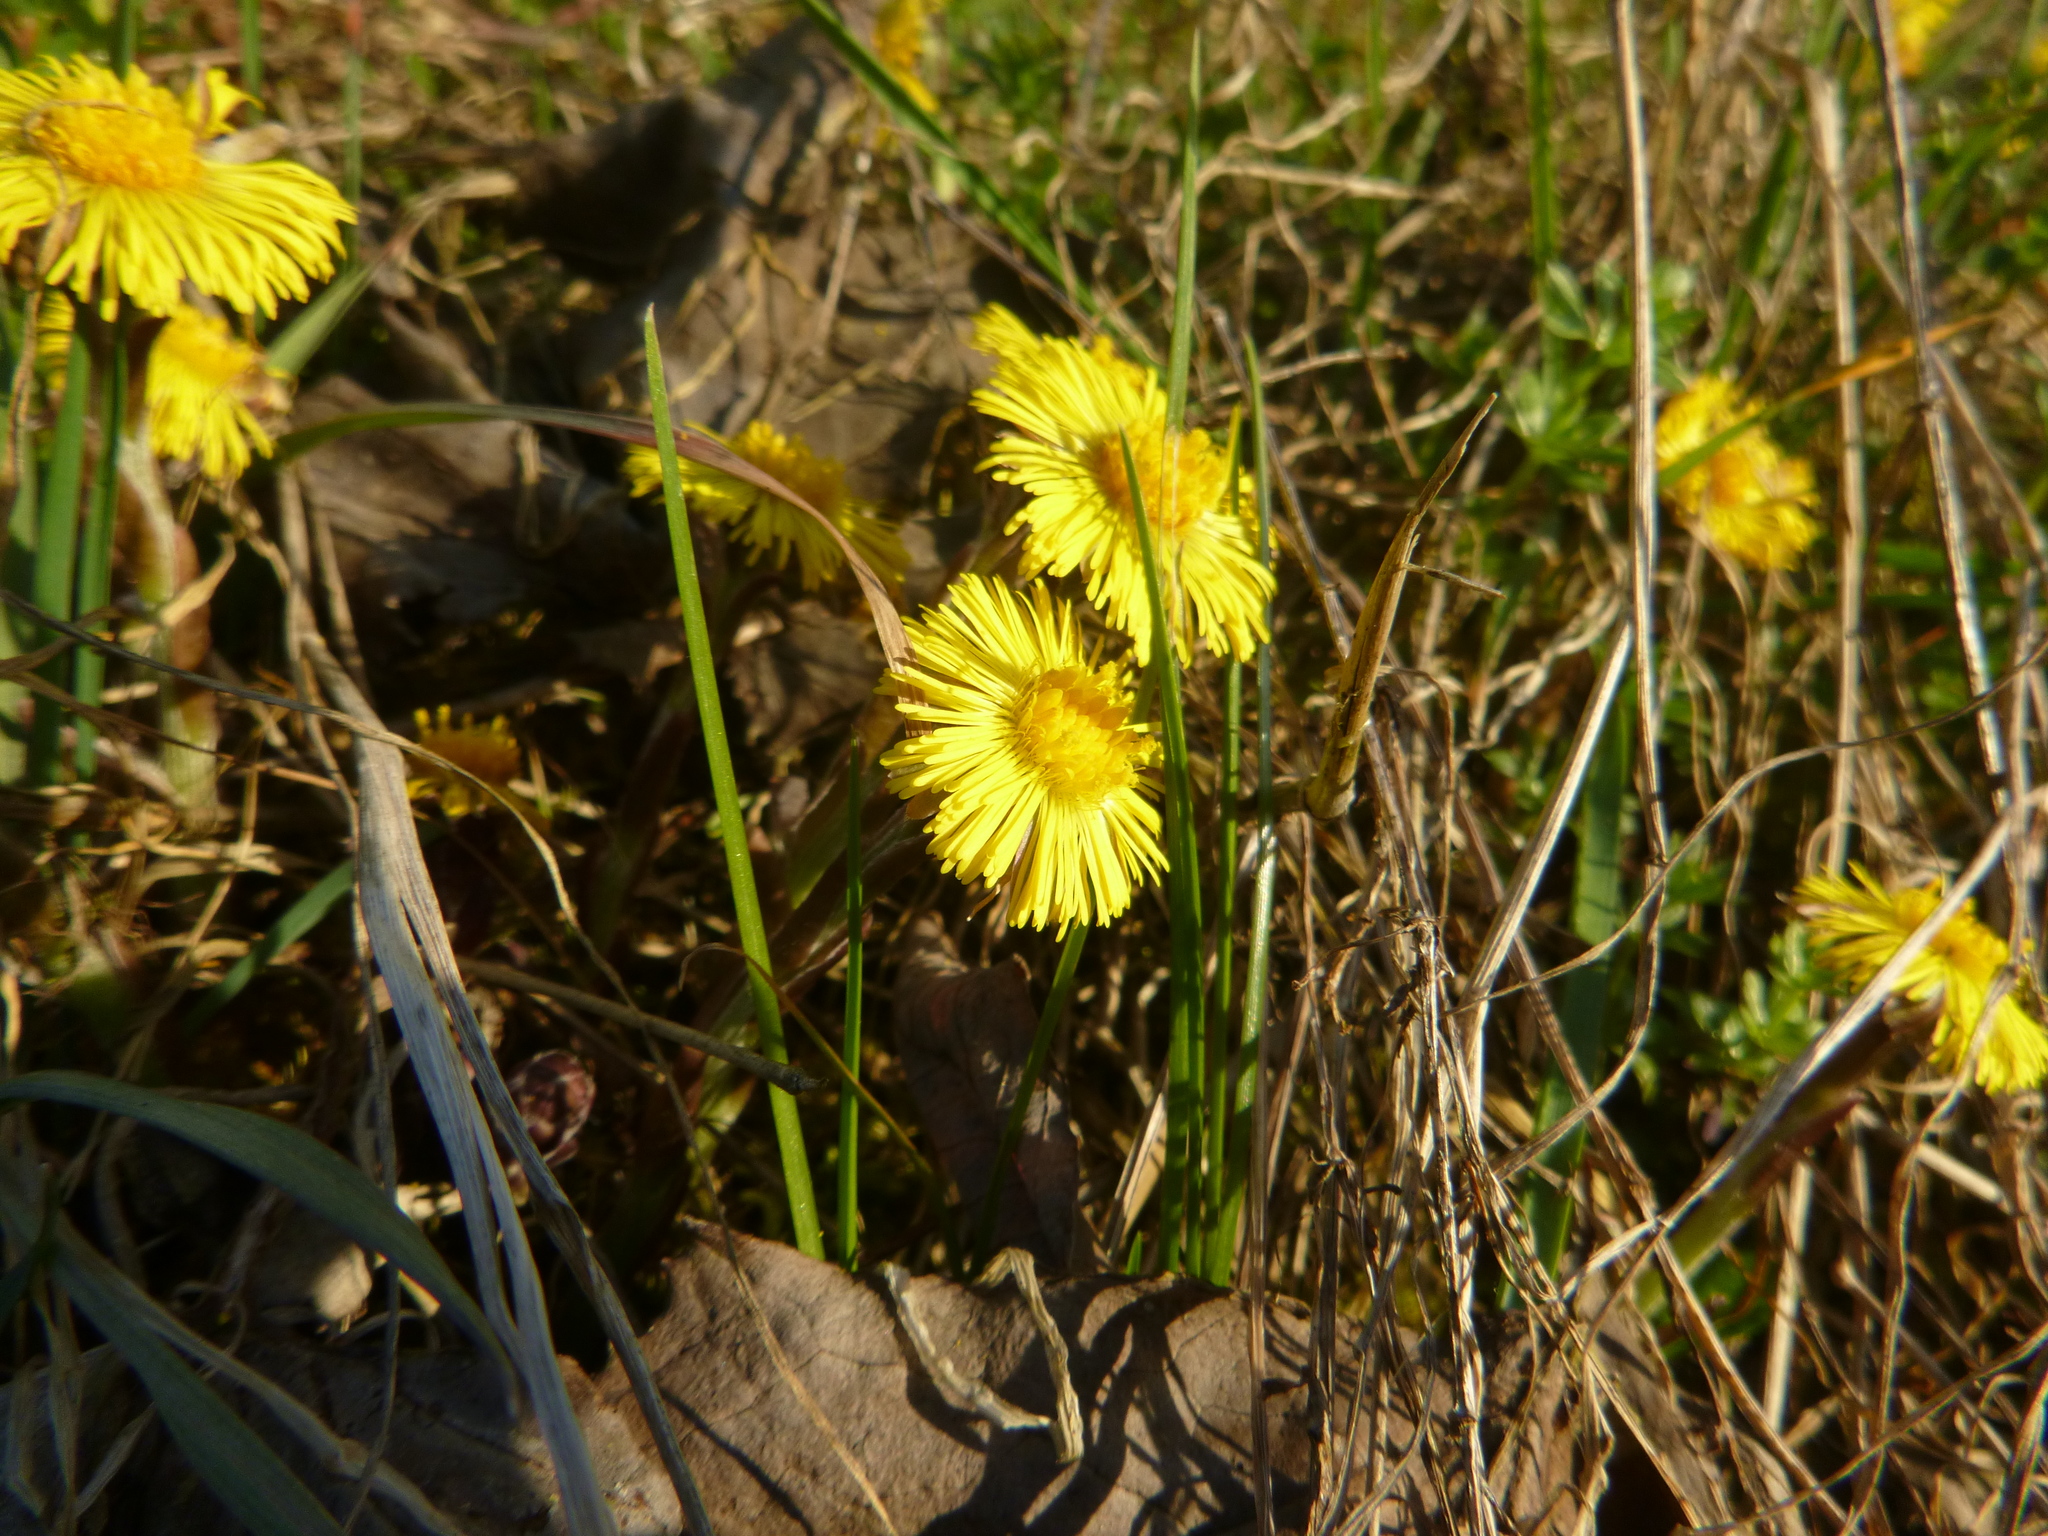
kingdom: Plantae
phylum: Tracheophyta
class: Magnoliopsida
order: Asterales
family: Asteraceae
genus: Tussilago
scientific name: Tussilago farfara
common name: Coltsfoot
